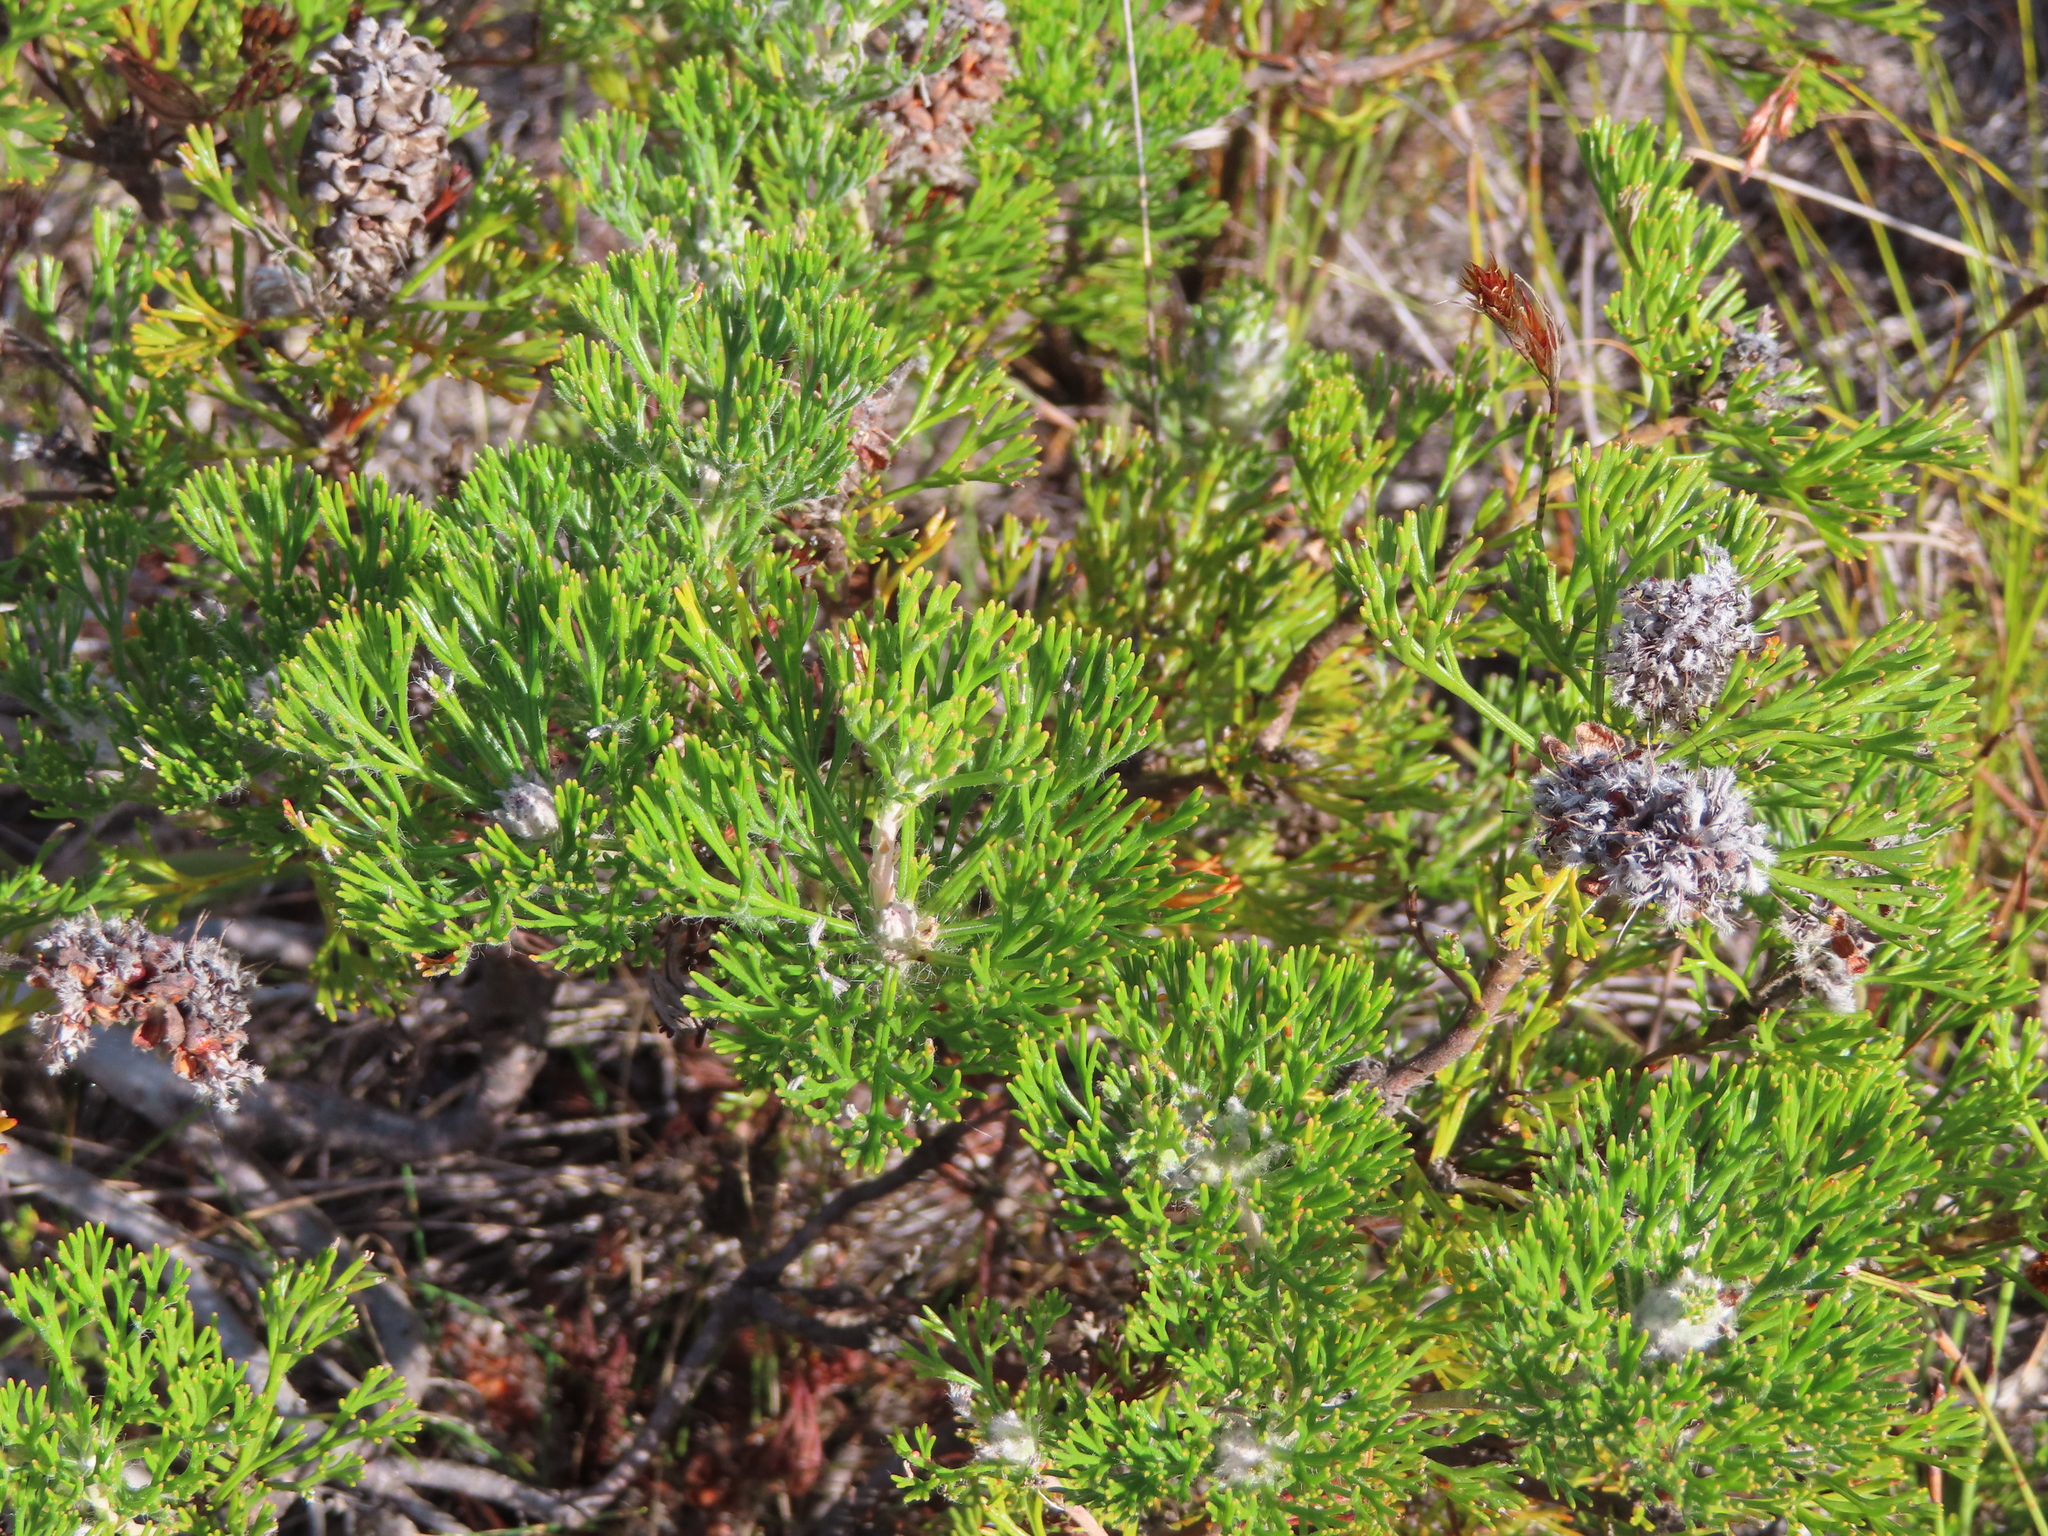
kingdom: Plantae
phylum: Tracheophyta
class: Magnoliopsida
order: Proteales
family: Proteaceae
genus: Paranomus
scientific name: Paranomus abrotanifolius
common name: Bredasdorp sceptre
